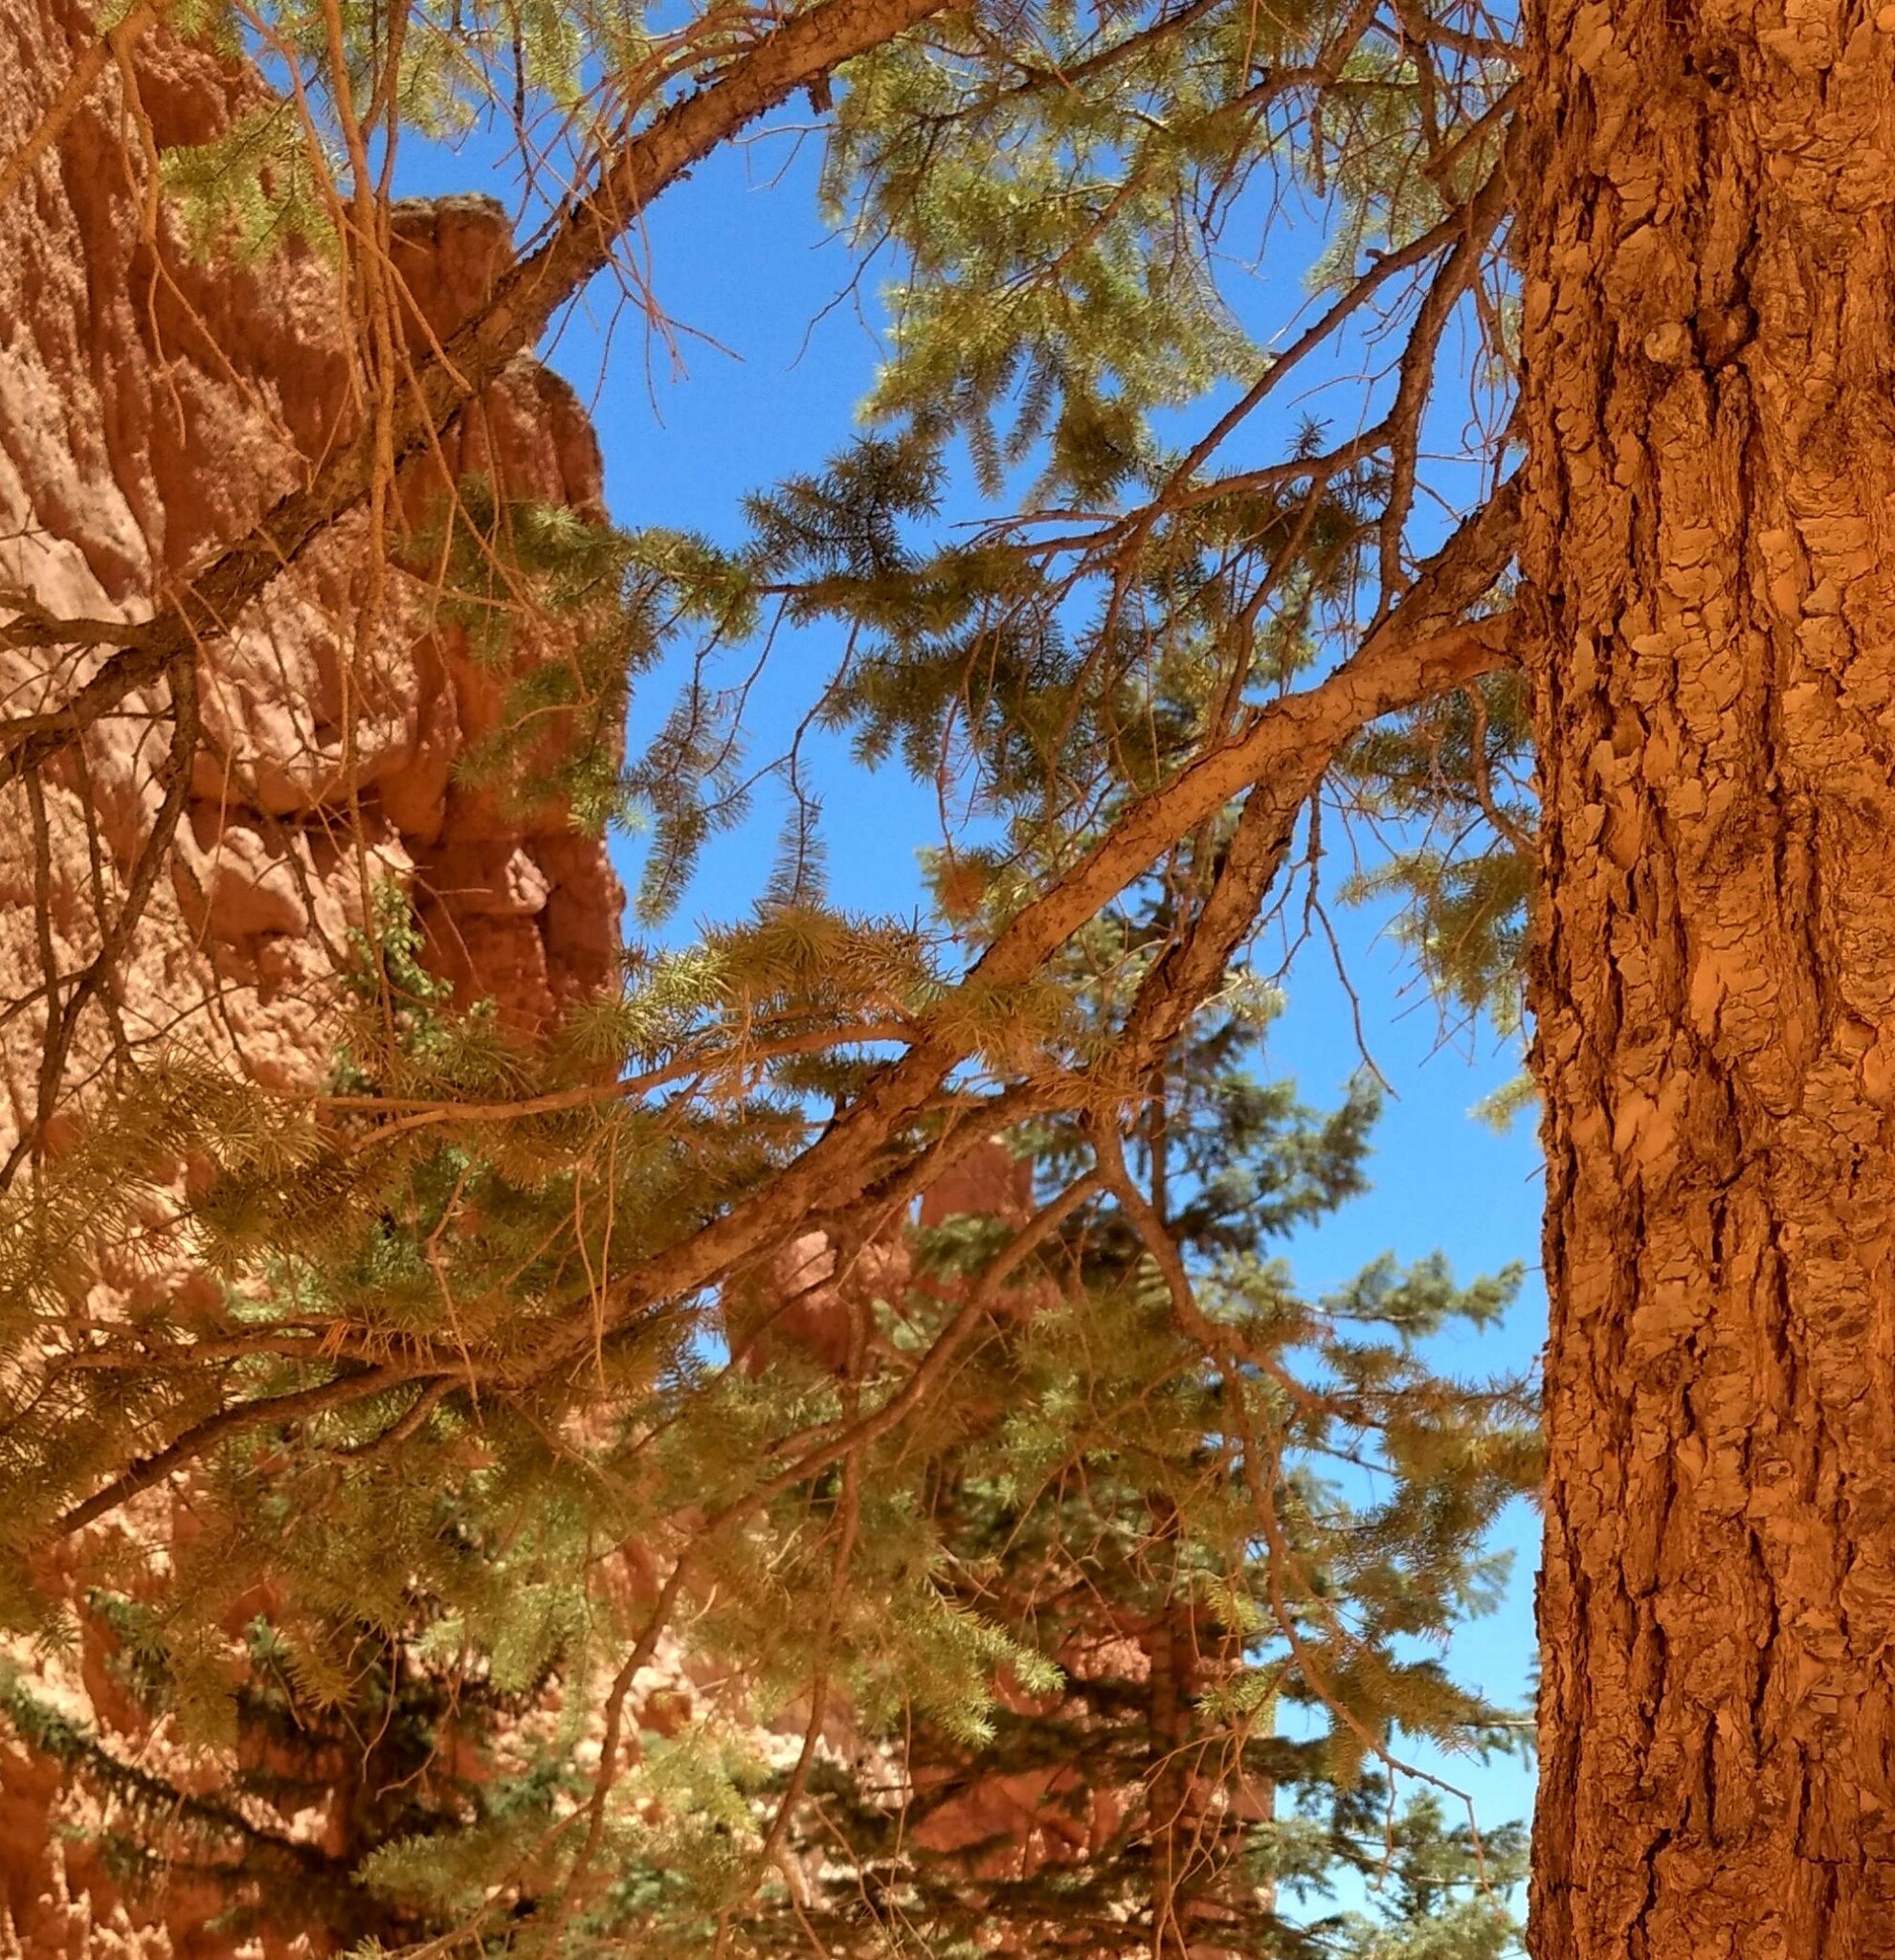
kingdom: Plantae
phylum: Tracheophyta
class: Pinopsida
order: Pinales
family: Pinaceae
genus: Pseudotsuga
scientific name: Pseudotsuga menziesii
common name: Douglas fir
